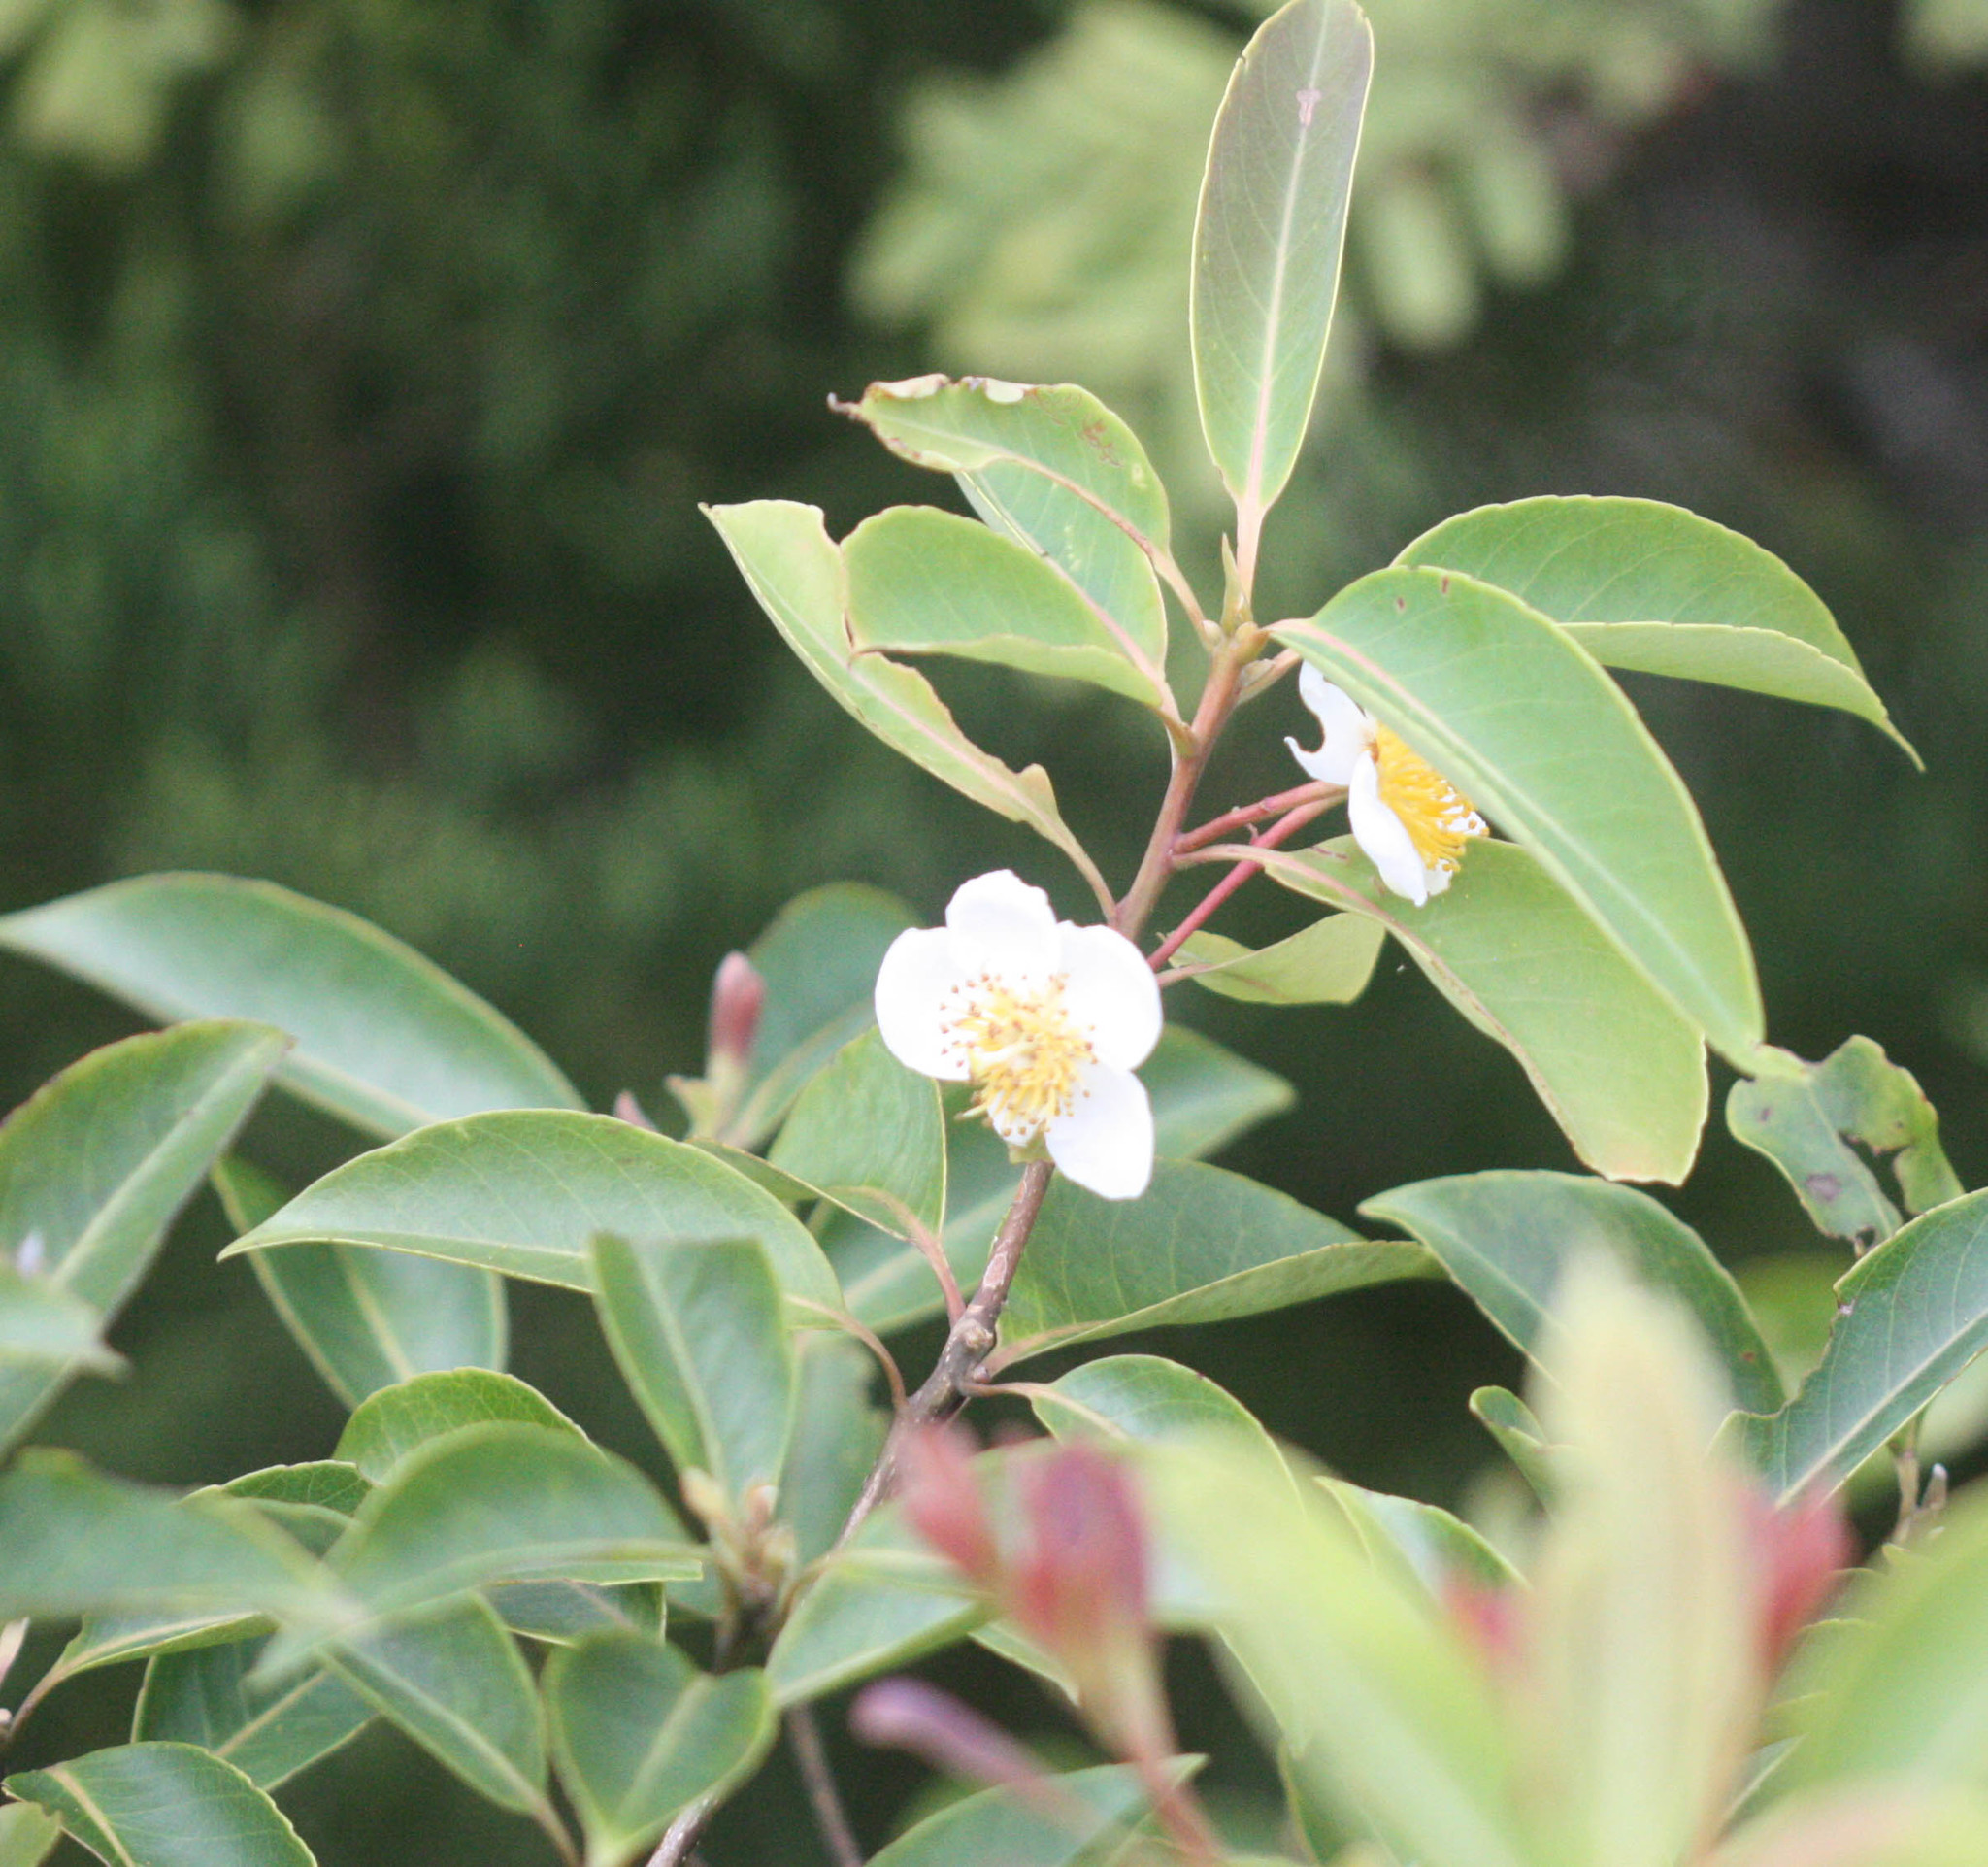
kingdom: Plantae
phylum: Tracheophyta
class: Magnoliopsida
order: Ericales
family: Theaceae
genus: Schima
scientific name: Schima wallichii
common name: Schima
